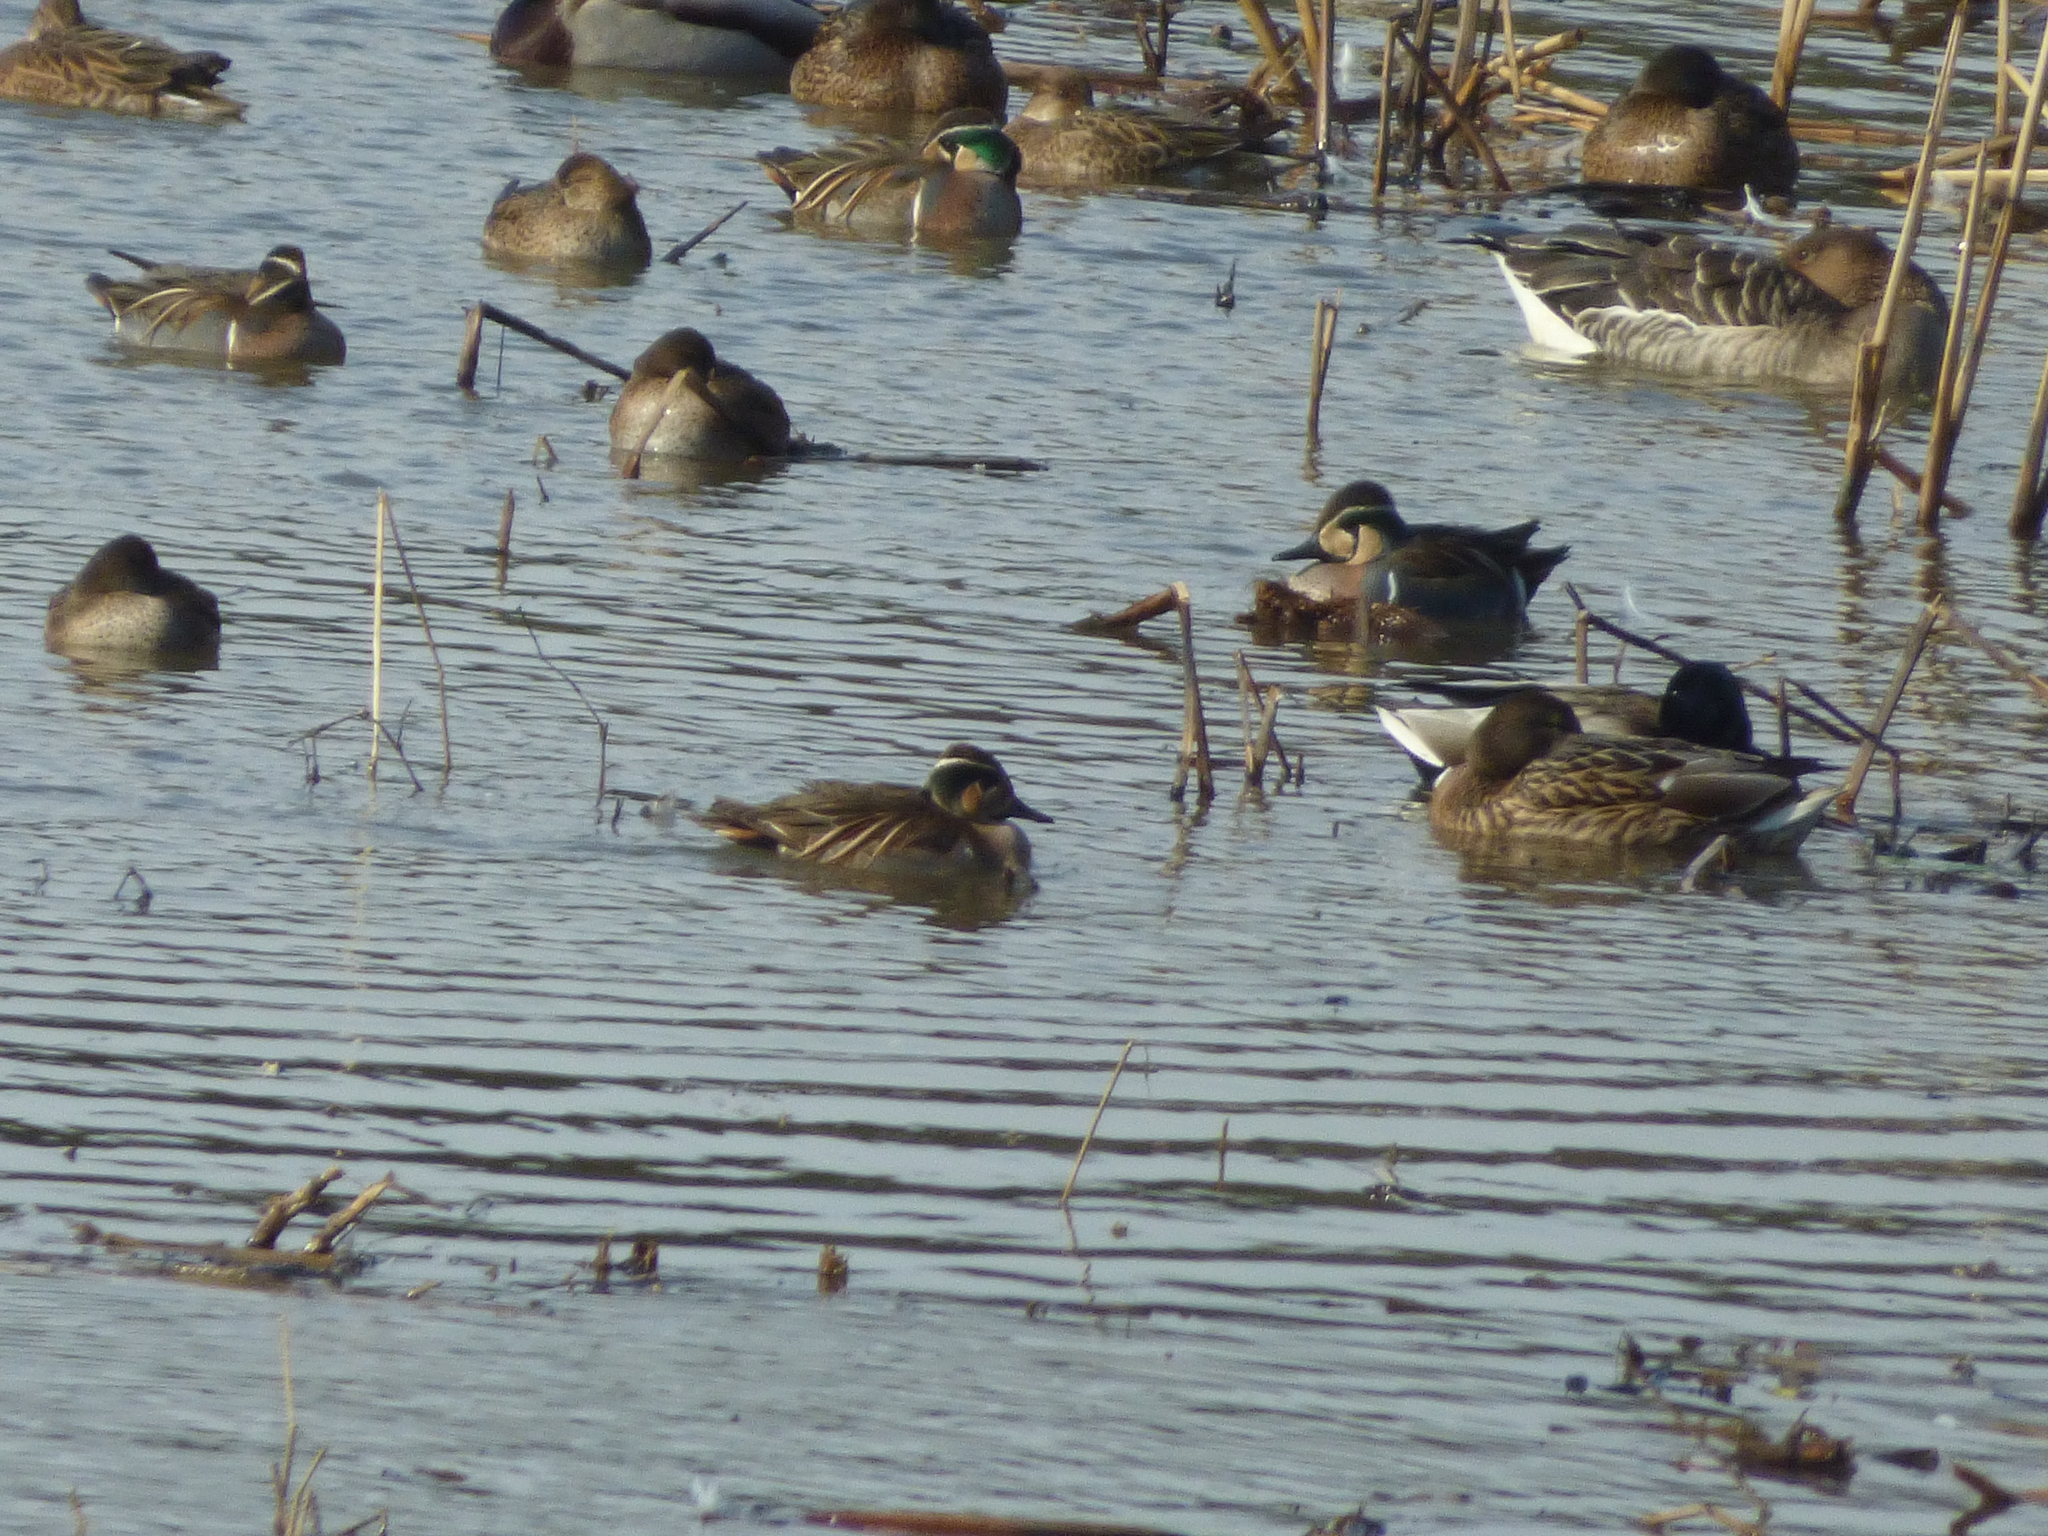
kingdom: Animalia
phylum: Chordata
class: Aves
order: Anseriformes
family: Anatidae
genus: Sibirionetta
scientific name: Sibirionetta formosa
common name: Baikal teal
